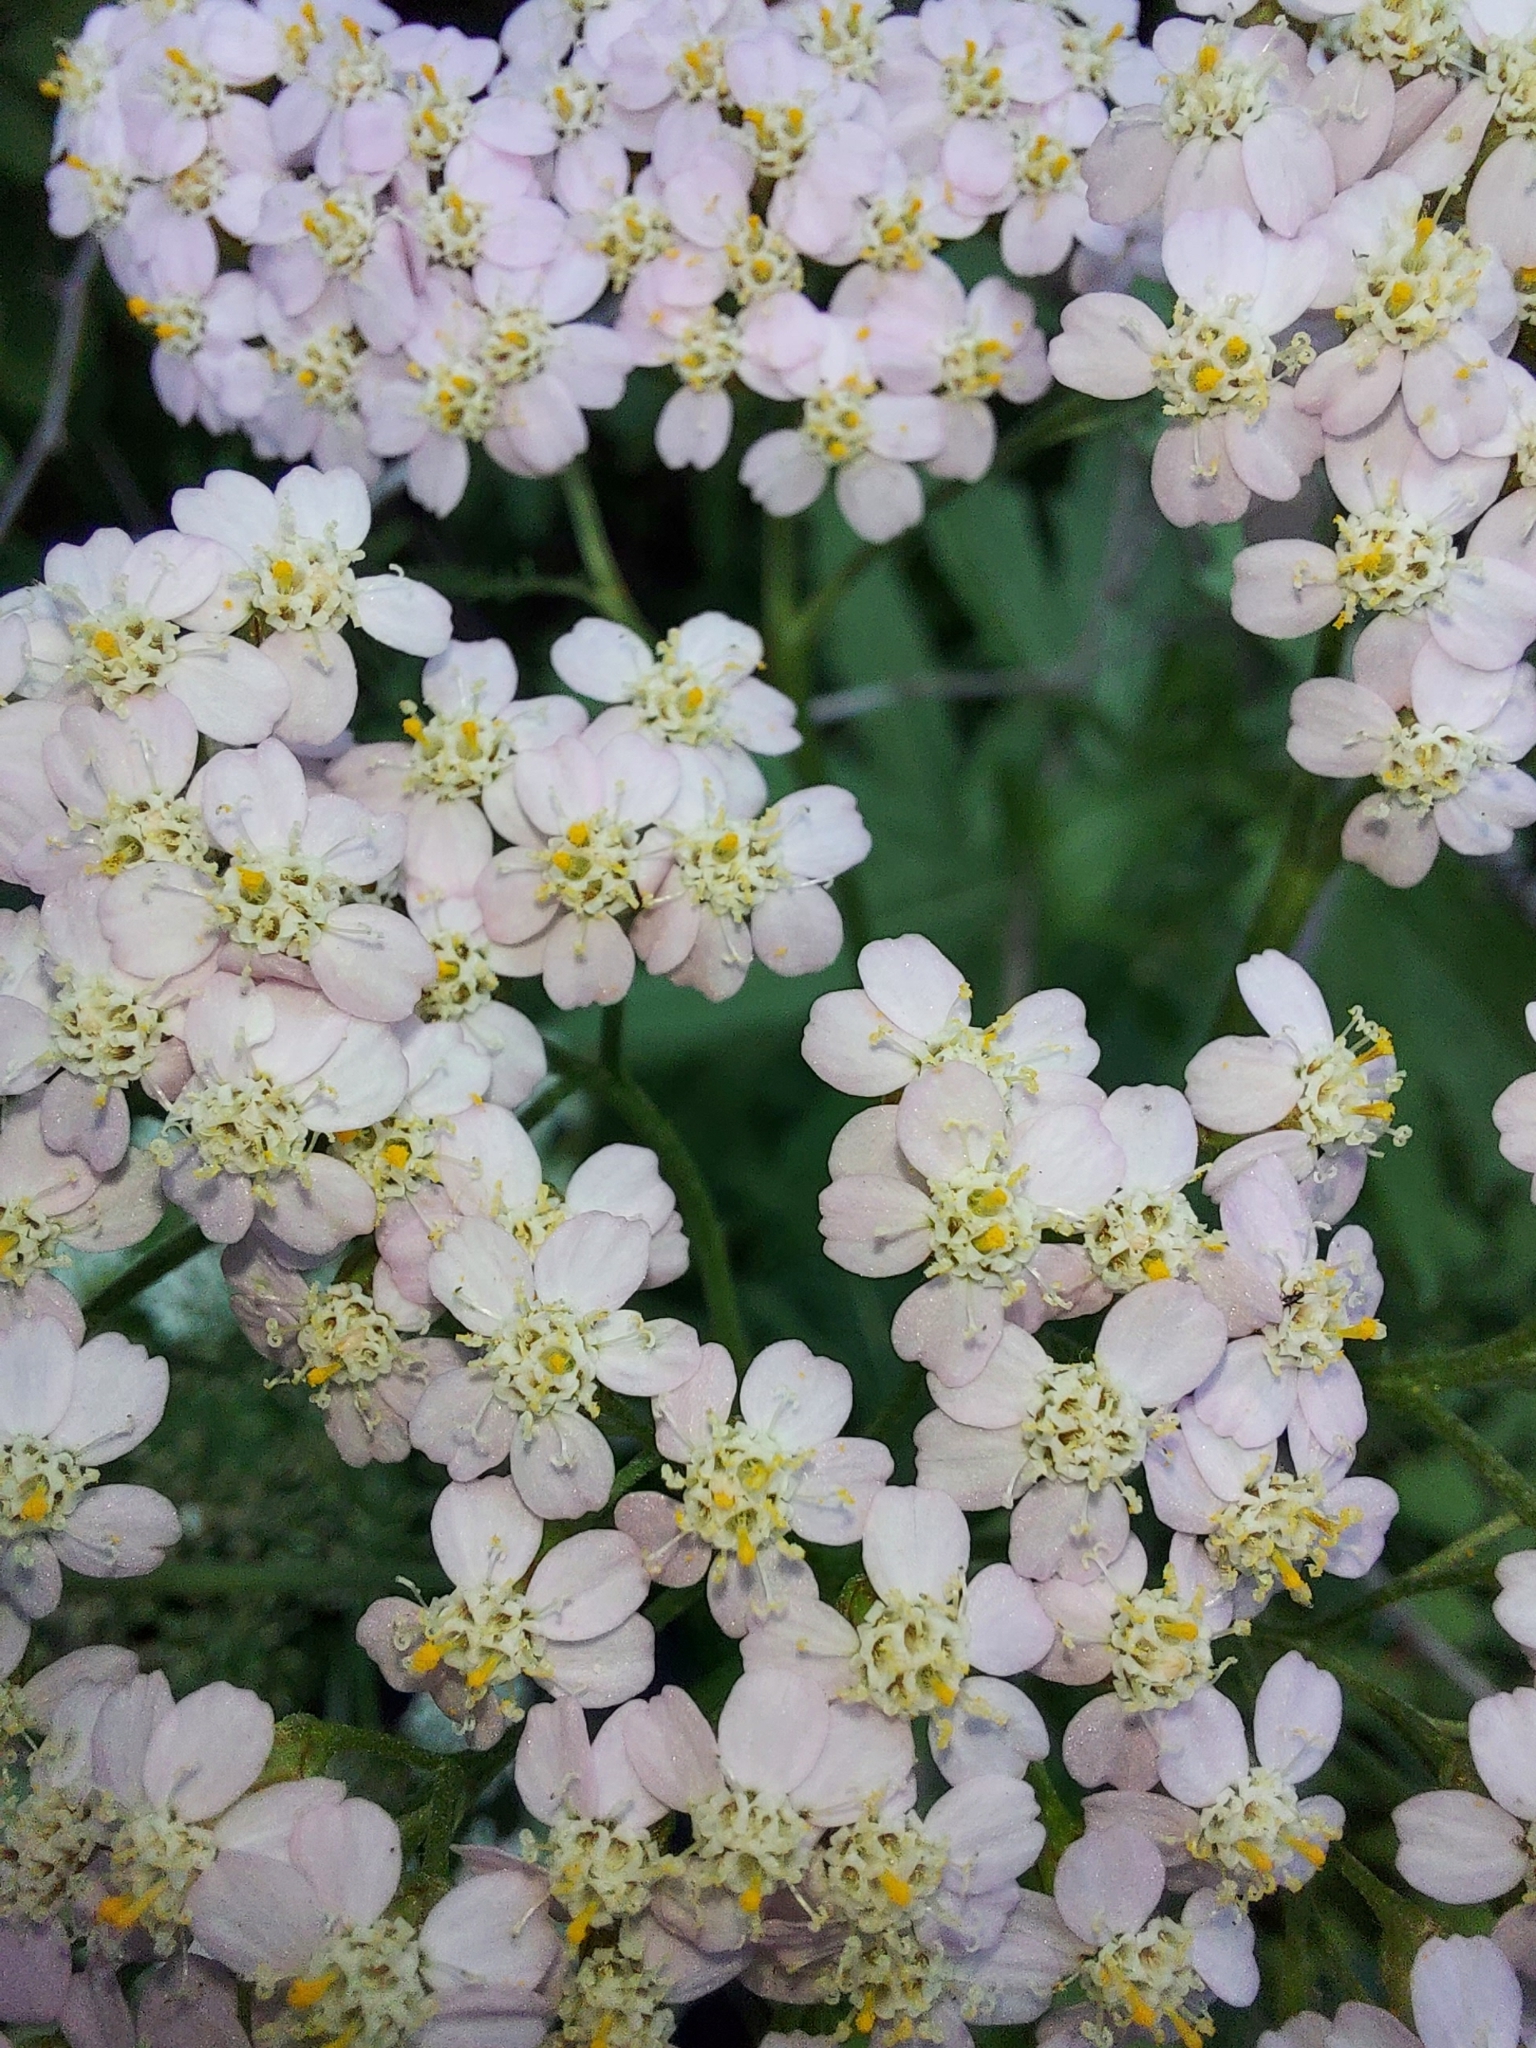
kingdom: Plantae
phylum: Tracheophyta
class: Magnoliopsida
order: Asterales
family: Asteraceae
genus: Achillea
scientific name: Achillea millefolium
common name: Yarrow
